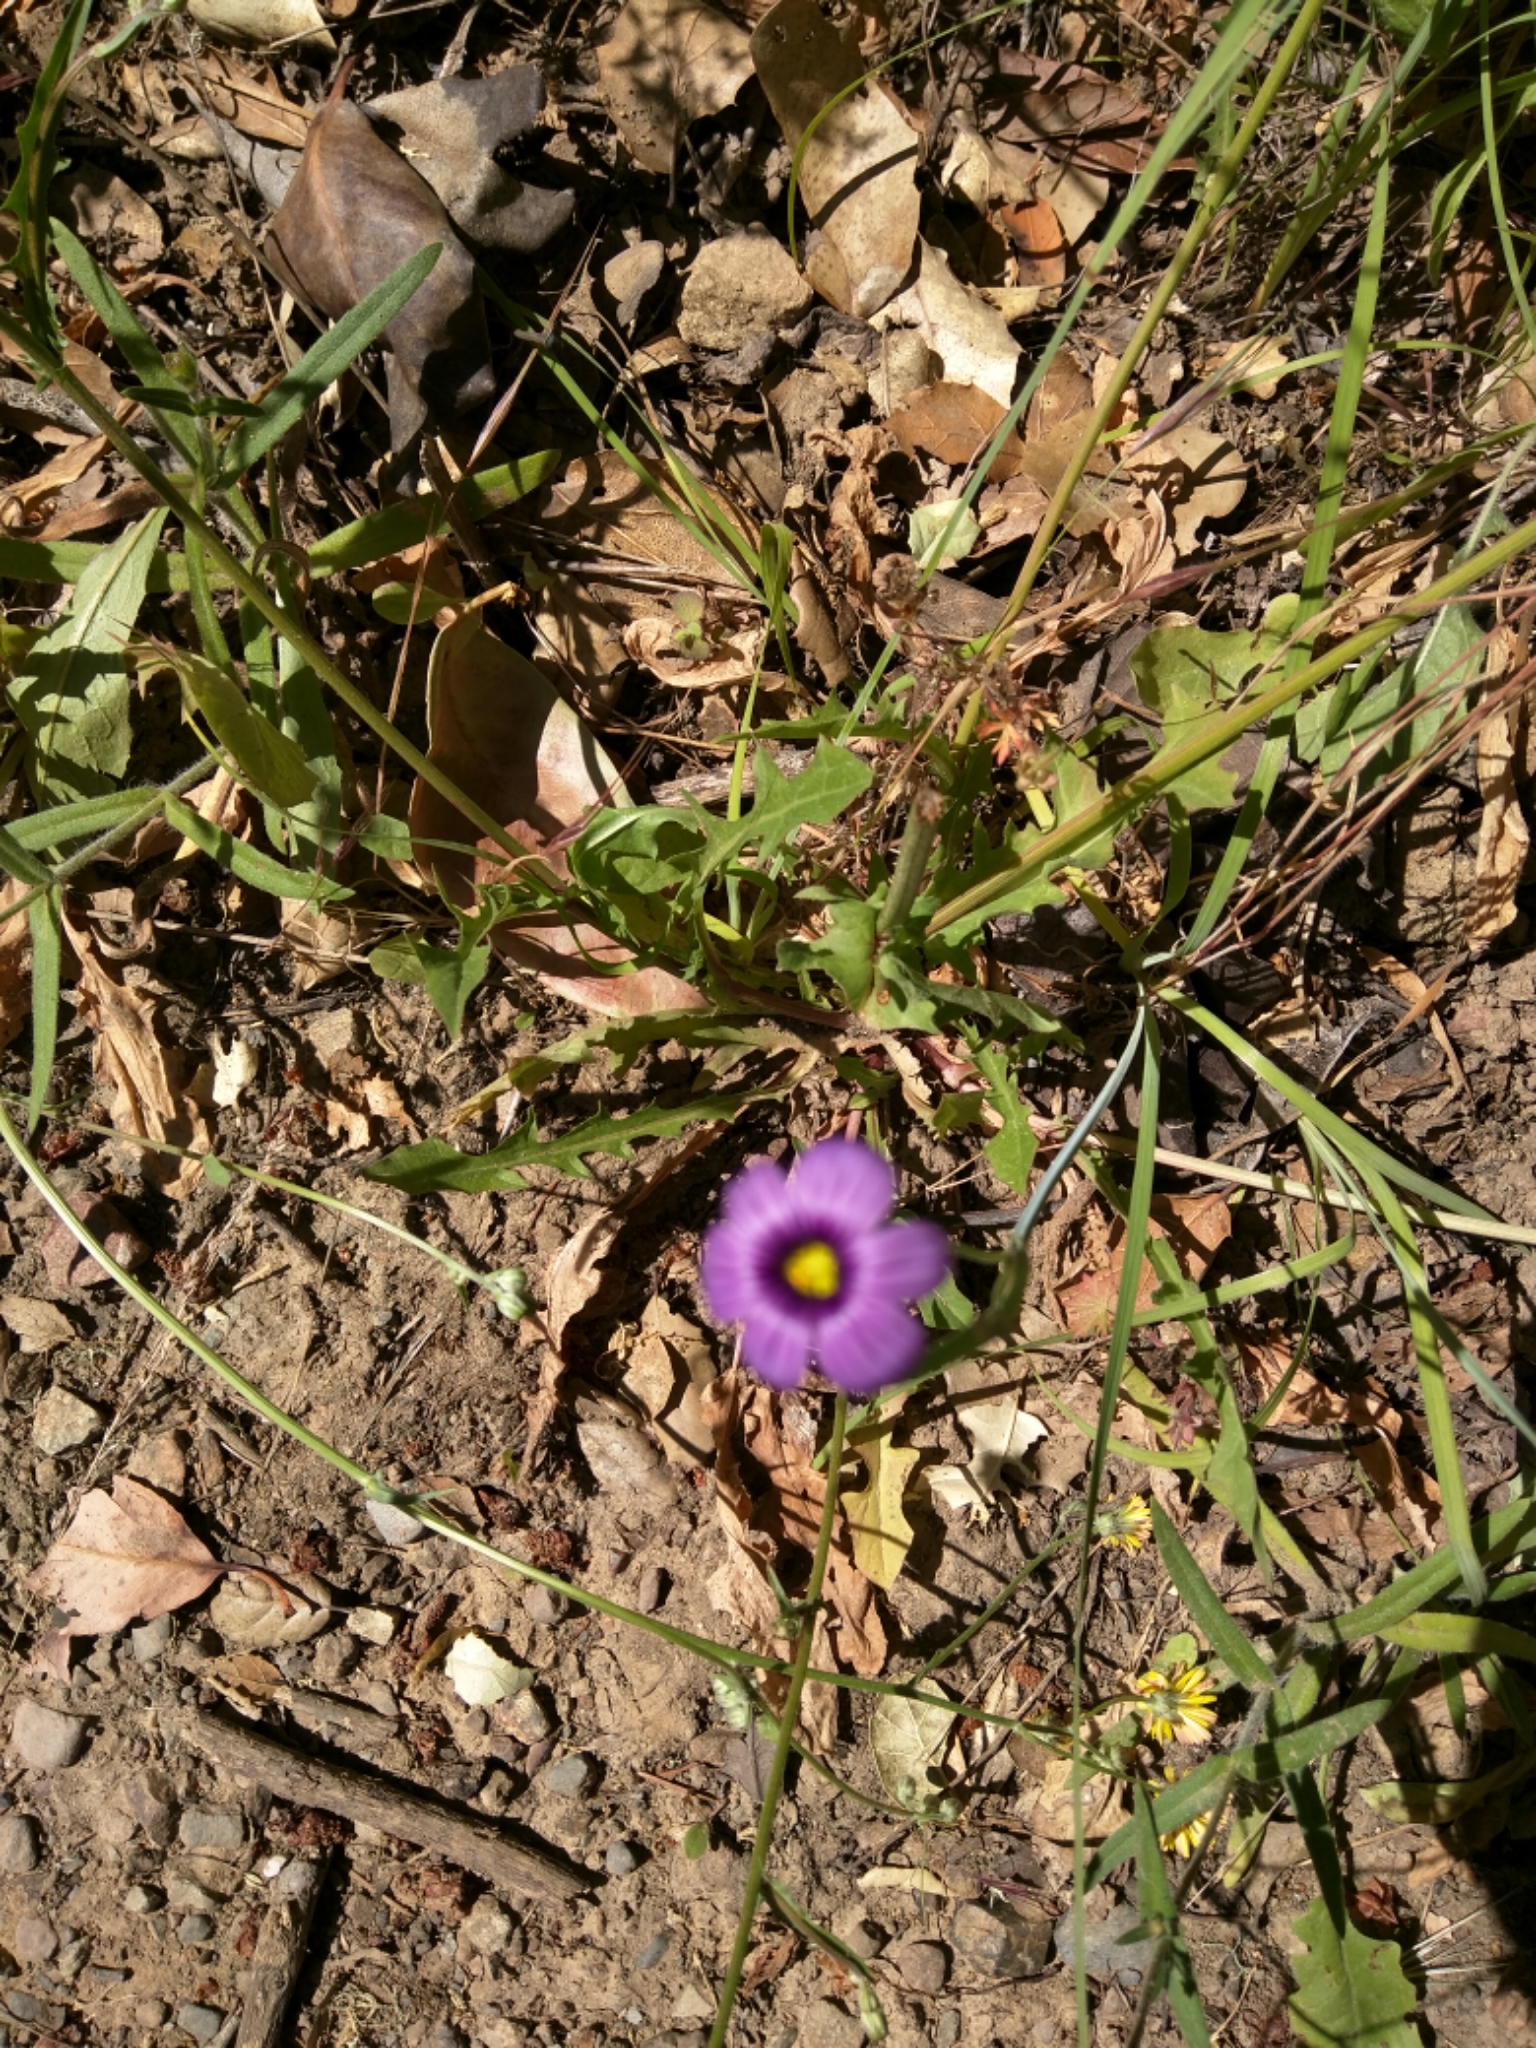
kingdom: Plantae
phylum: Tracheophyta
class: Liliopsida
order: Asparagales
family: Iridaceae
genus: Sisyrinchium
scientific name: Sisyrinchium bellum
